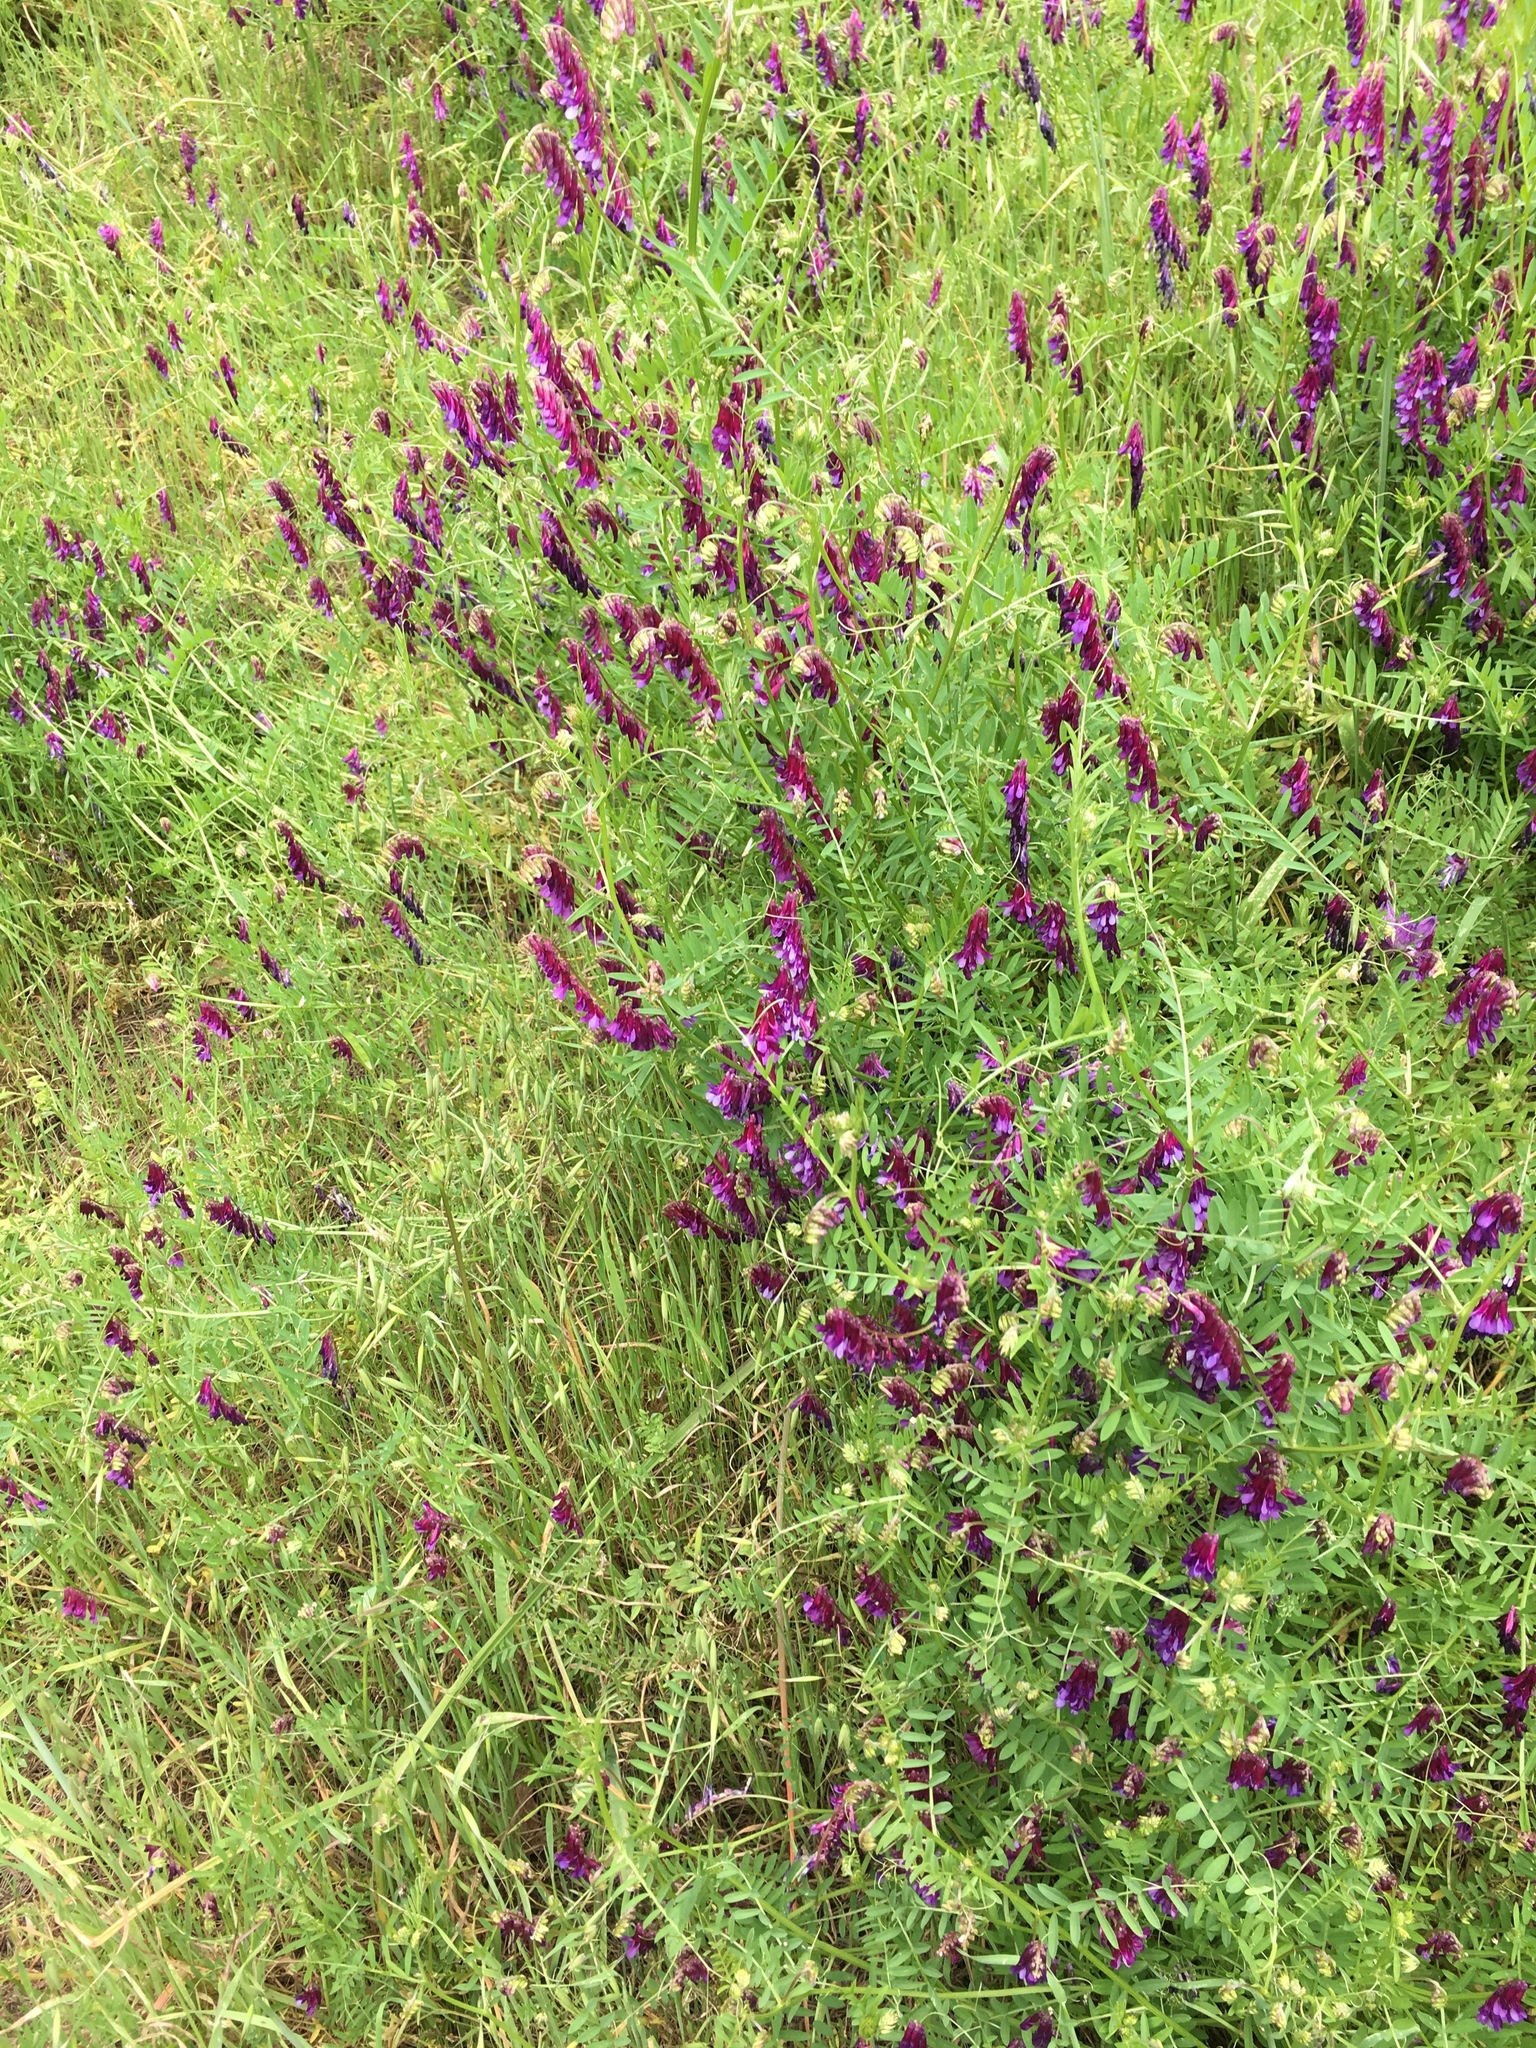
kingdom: Plantae
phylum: Tracheophyta
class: Magnoliopsida
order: Fabales
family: Fabaceae
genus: Vicia
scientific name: Vicia villosa
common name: Fodder vetch
